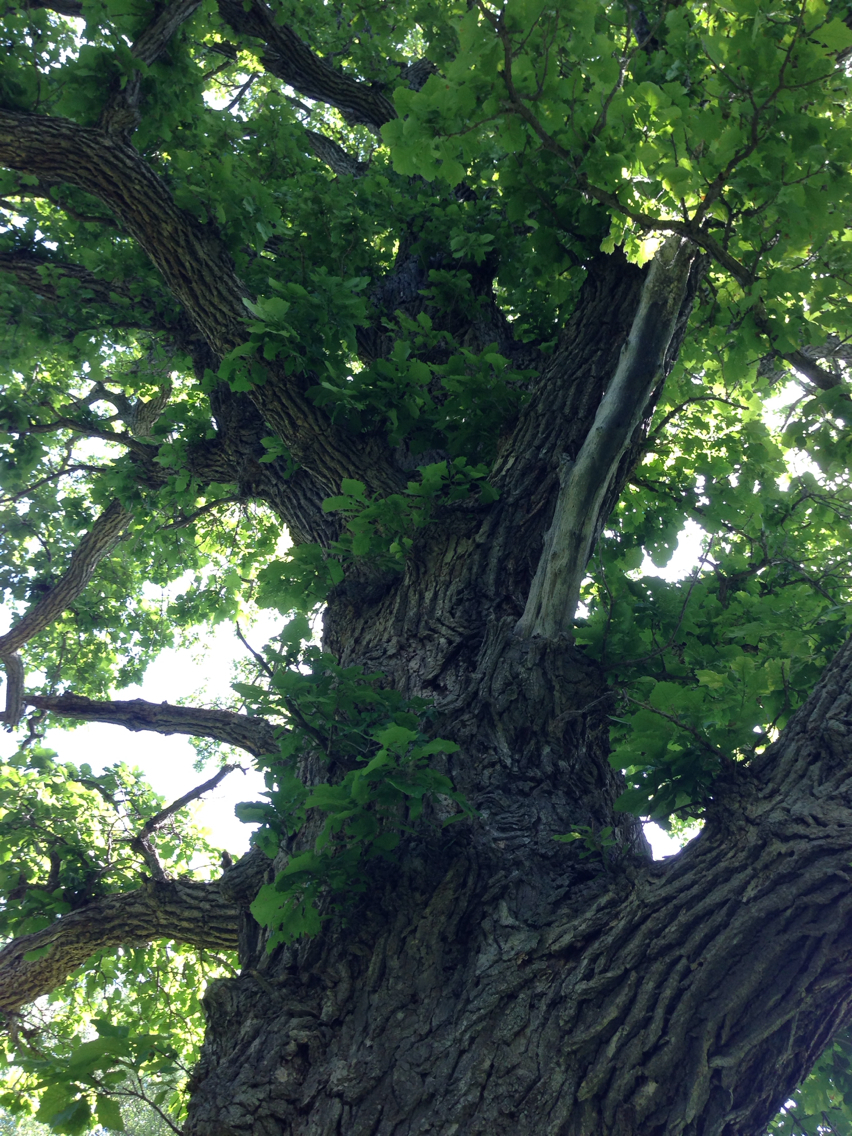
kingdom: Plantae
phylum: Tracheophyta
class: Magnoliopsida
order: Fagales
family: Fagaceae
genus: Quercus
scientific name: Quercus macrocarpa
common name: Bur oak
